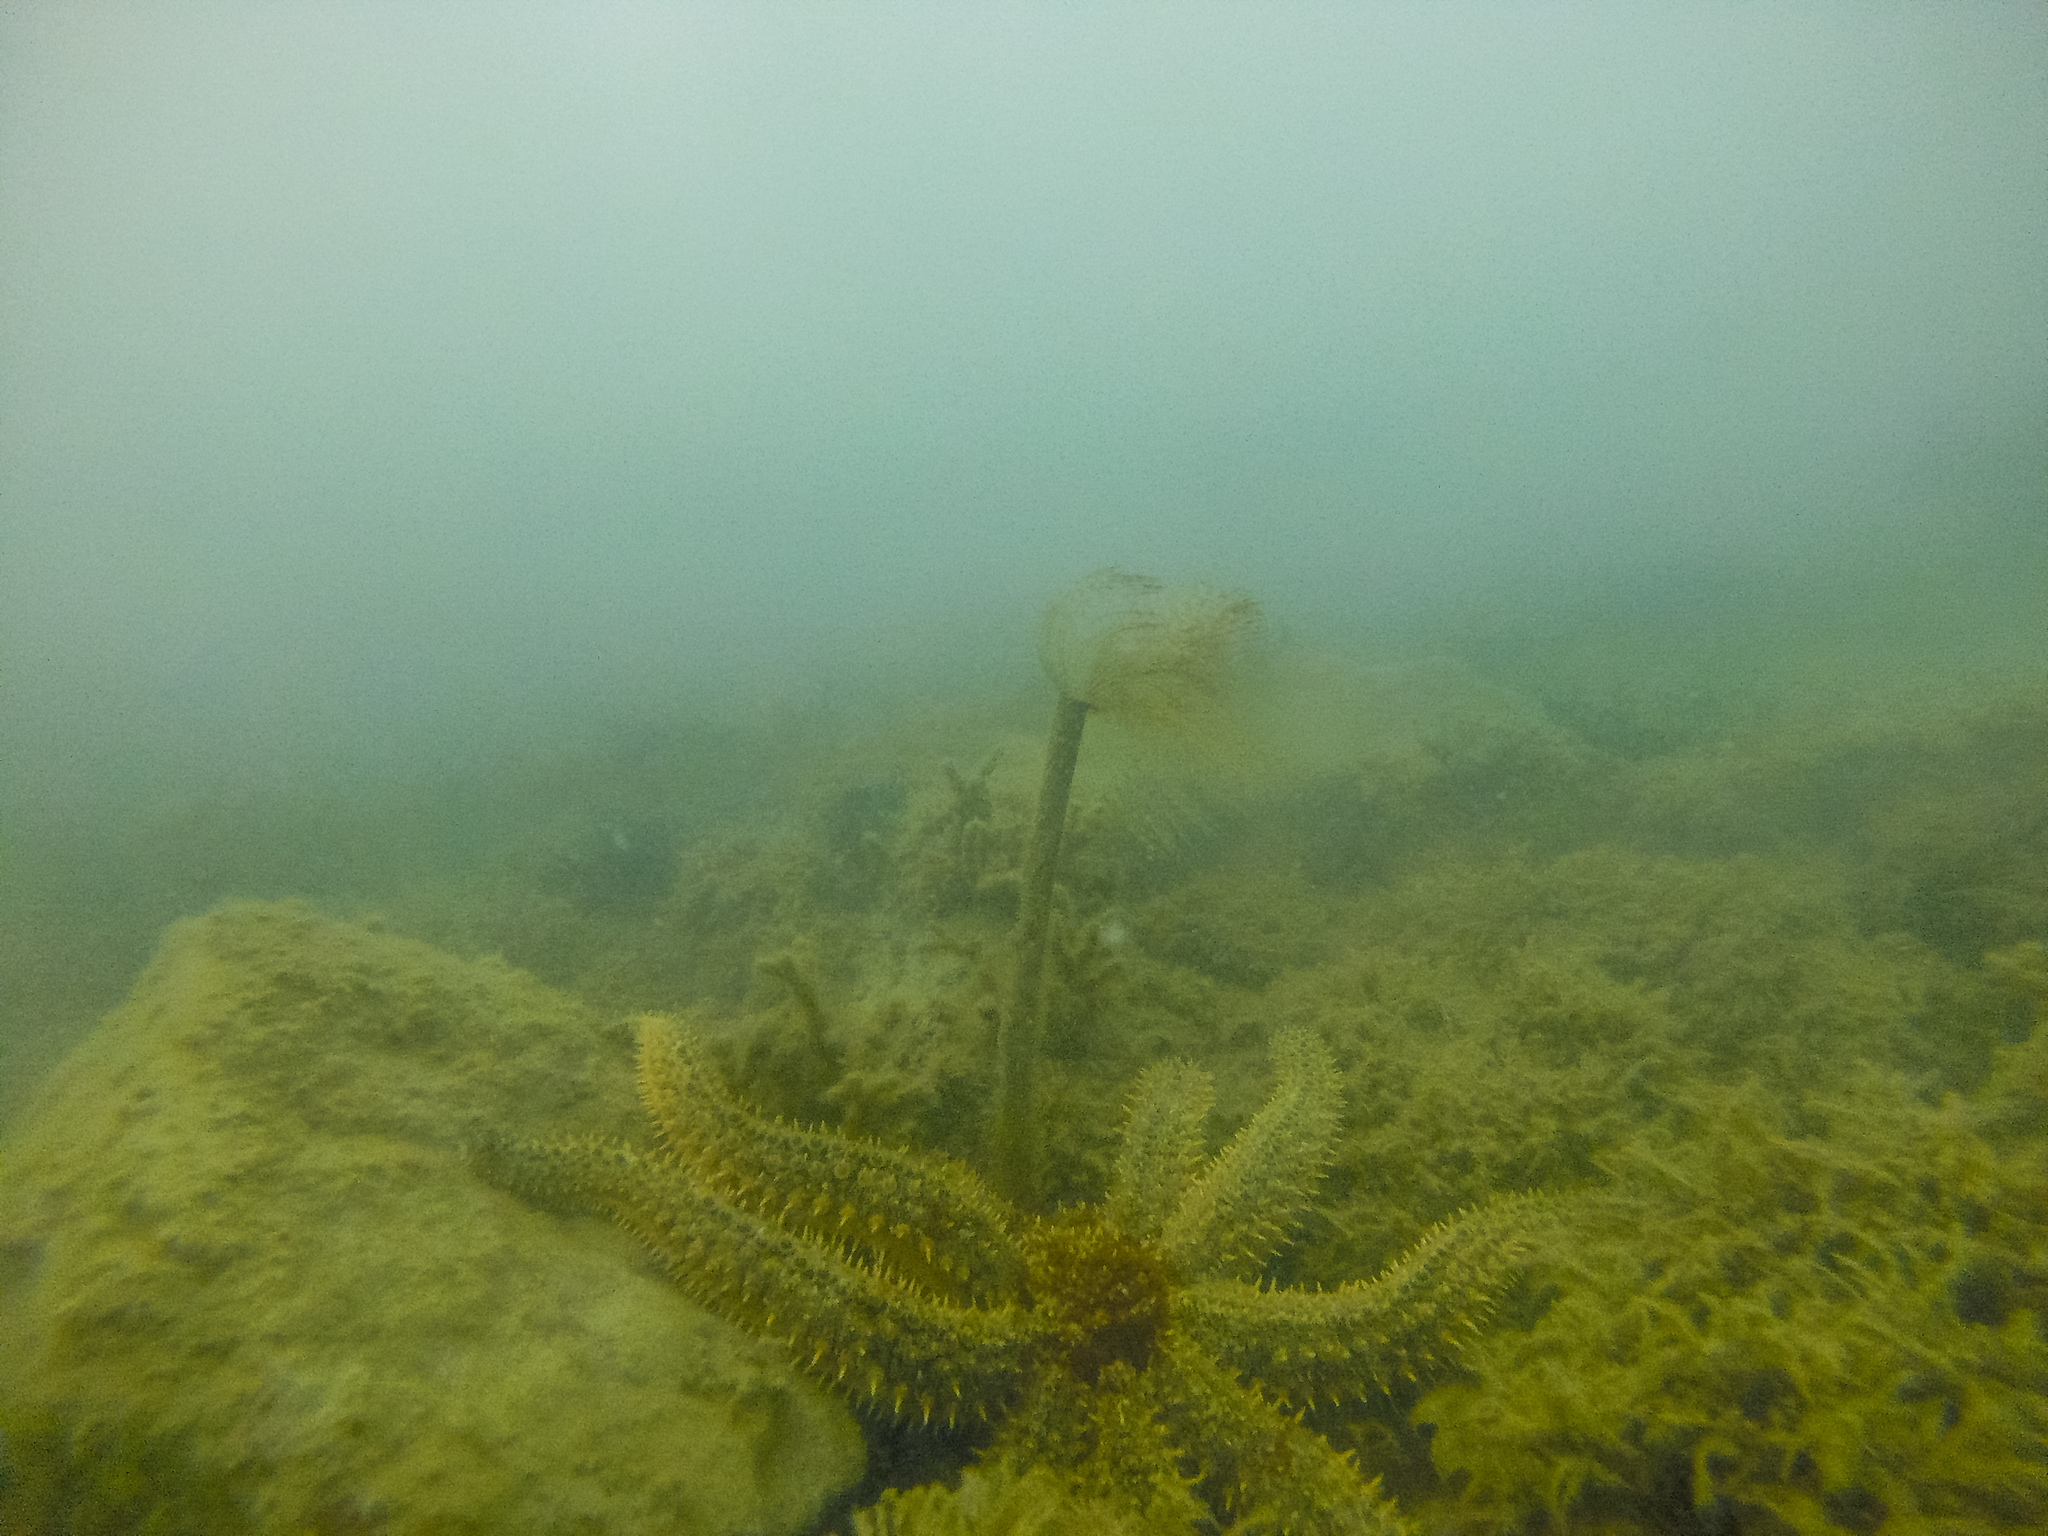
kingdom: Animalia
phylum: Annelida
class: Polychaeta
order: Sabellida
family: Sabellidae
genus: Sabella
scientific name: Sabella spallanzanii
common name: Feather duster worm
